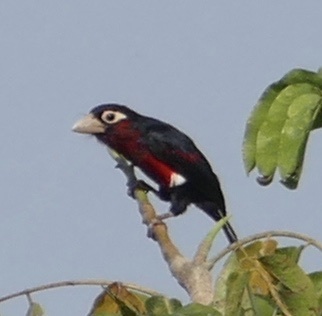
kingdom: Animalia
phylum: Chordata
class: Aves
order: Piciformes
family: Lybiidae
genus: Lybius
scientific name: Lybius bidentatus
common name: Double-toothed barbet
